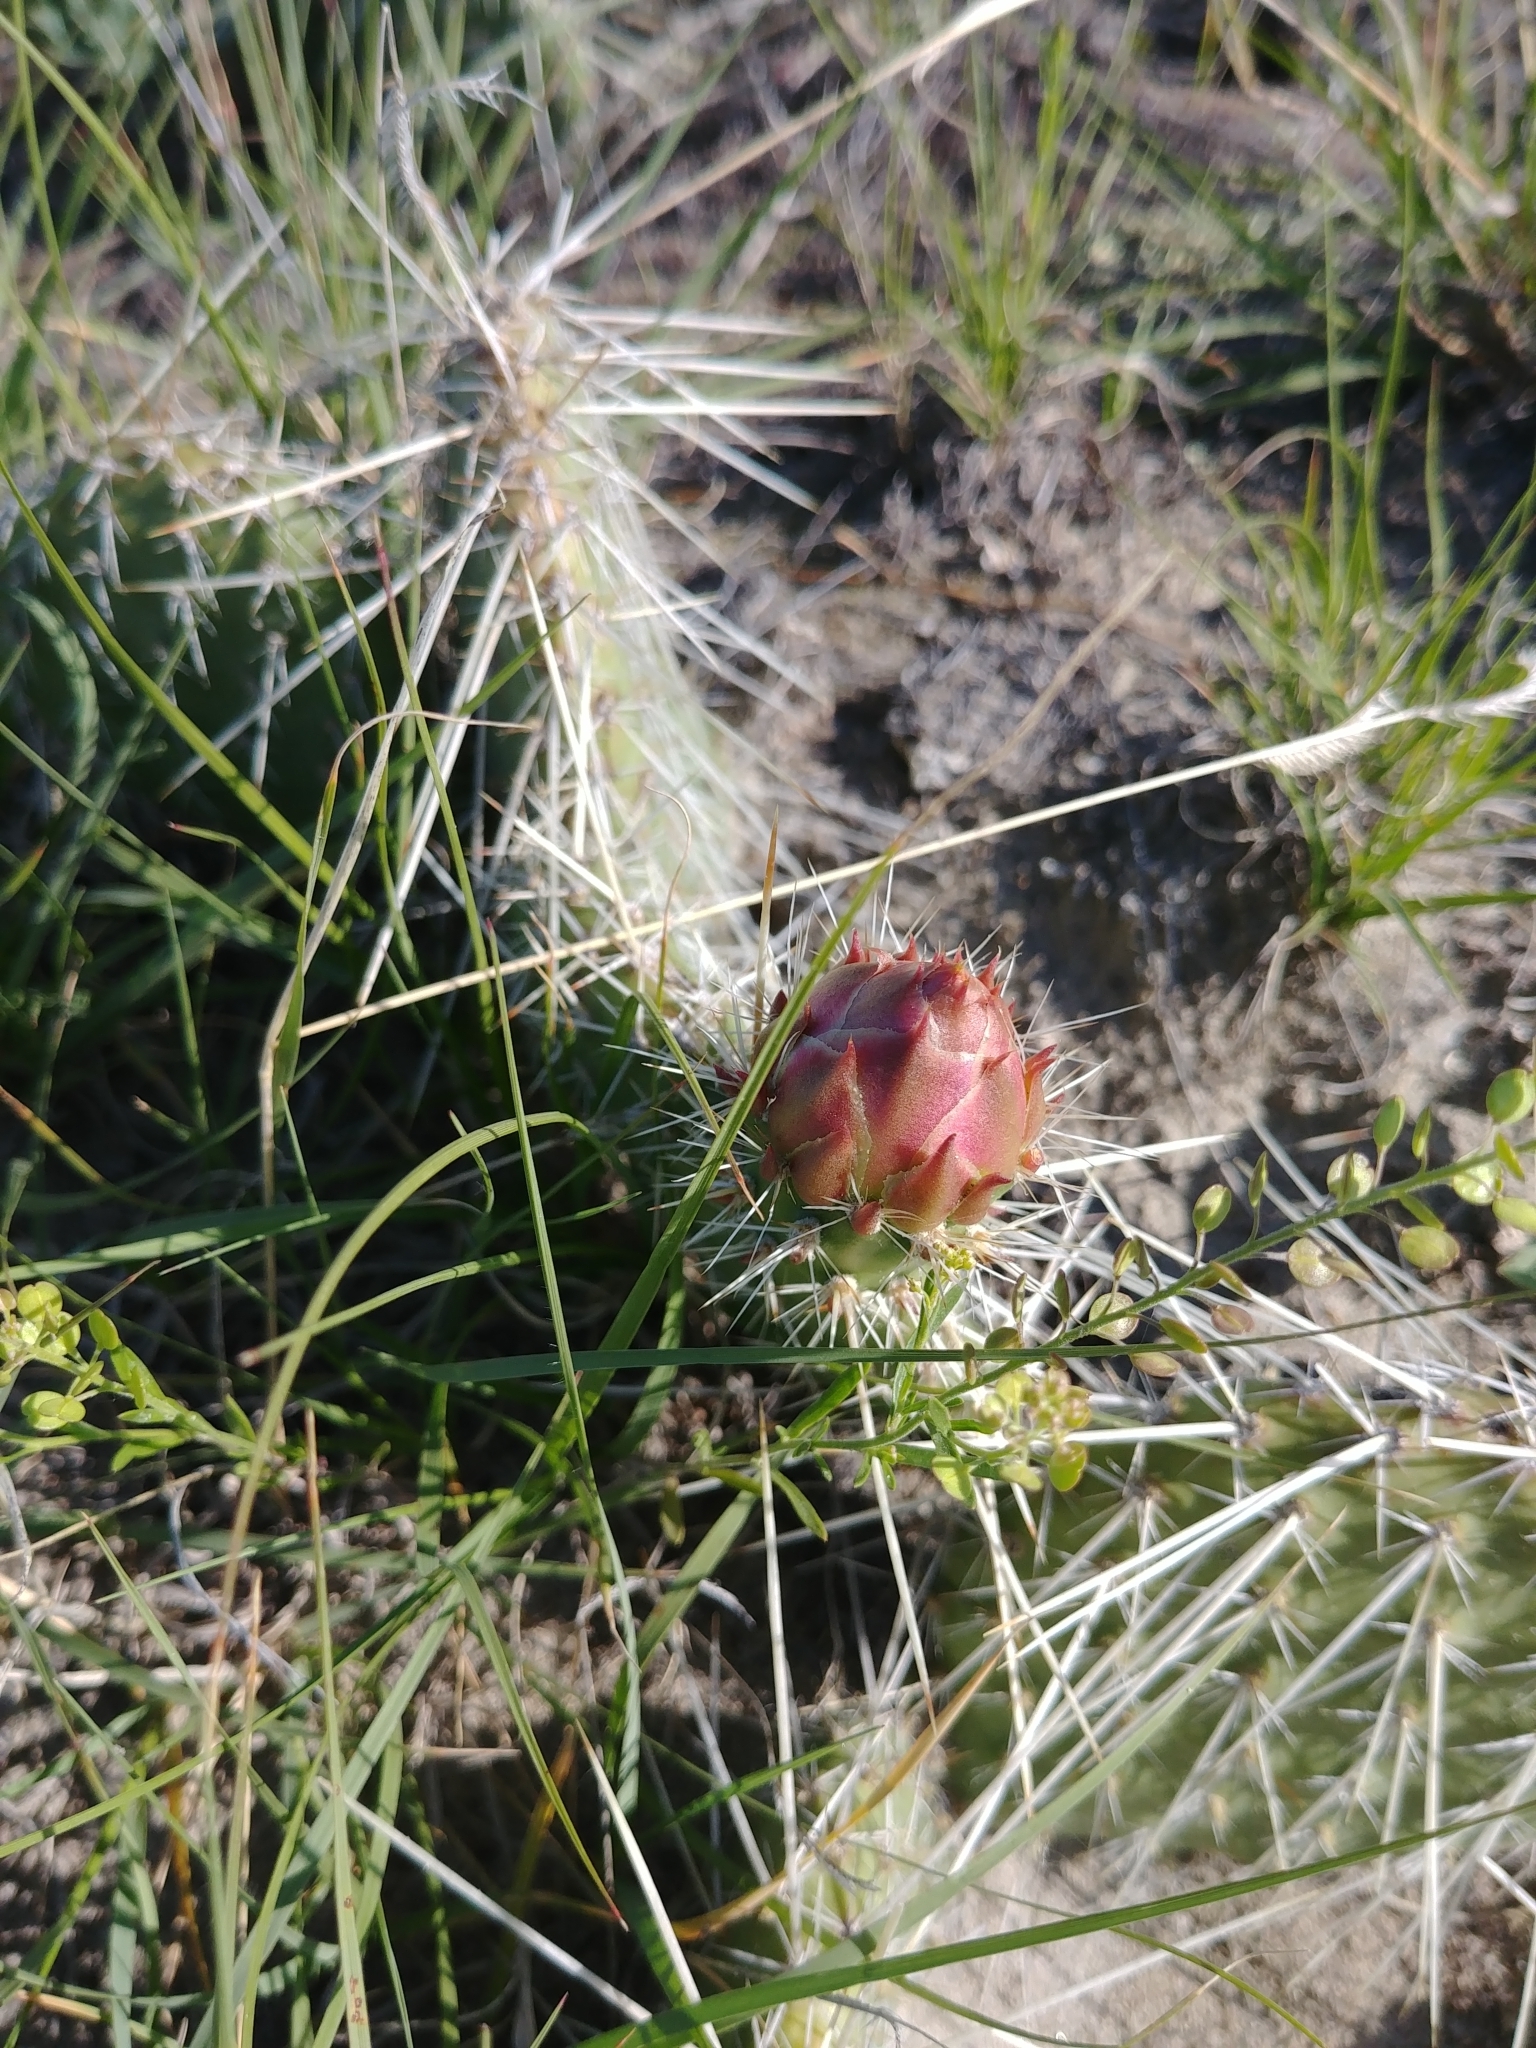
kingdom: Plantae
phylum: Tracheophyta
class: Magnoliopsida
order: Caryophyllales
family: Cactaceae
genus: Opuntia
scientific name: Opuntia polyacantha
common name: Plains prickly-pear
